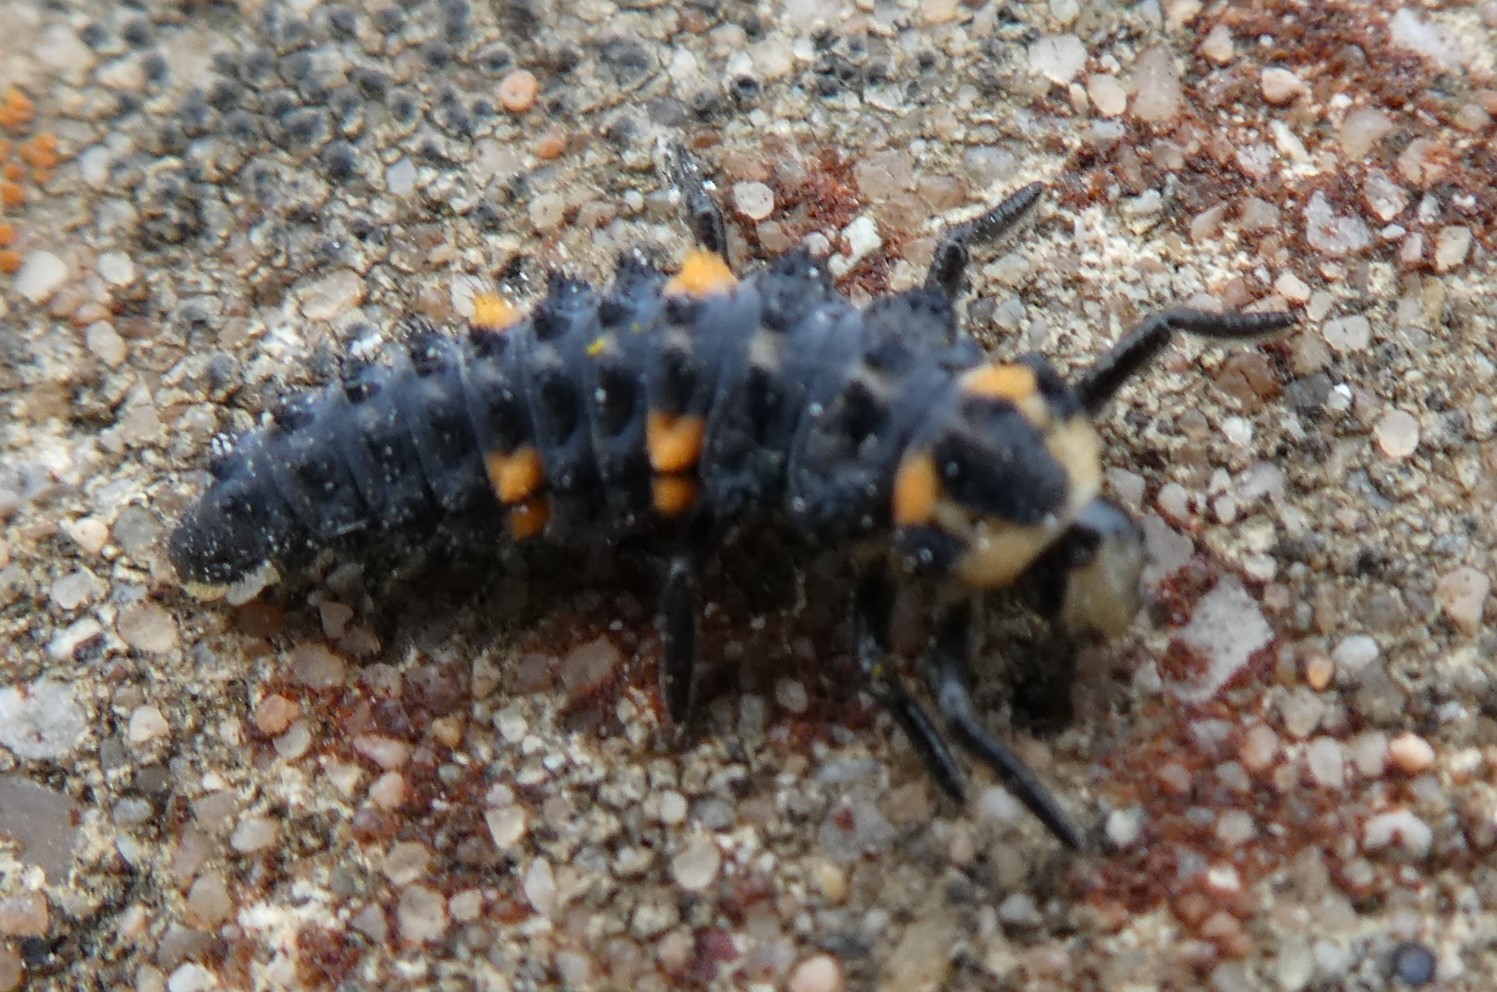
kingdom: Animalia
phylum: Arthropoda
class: Insecta
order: Coleoptera
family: Coccinellidae
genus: Coccinella
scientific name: Coccinella septempunctata
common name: Sevenspotted lady beetle
